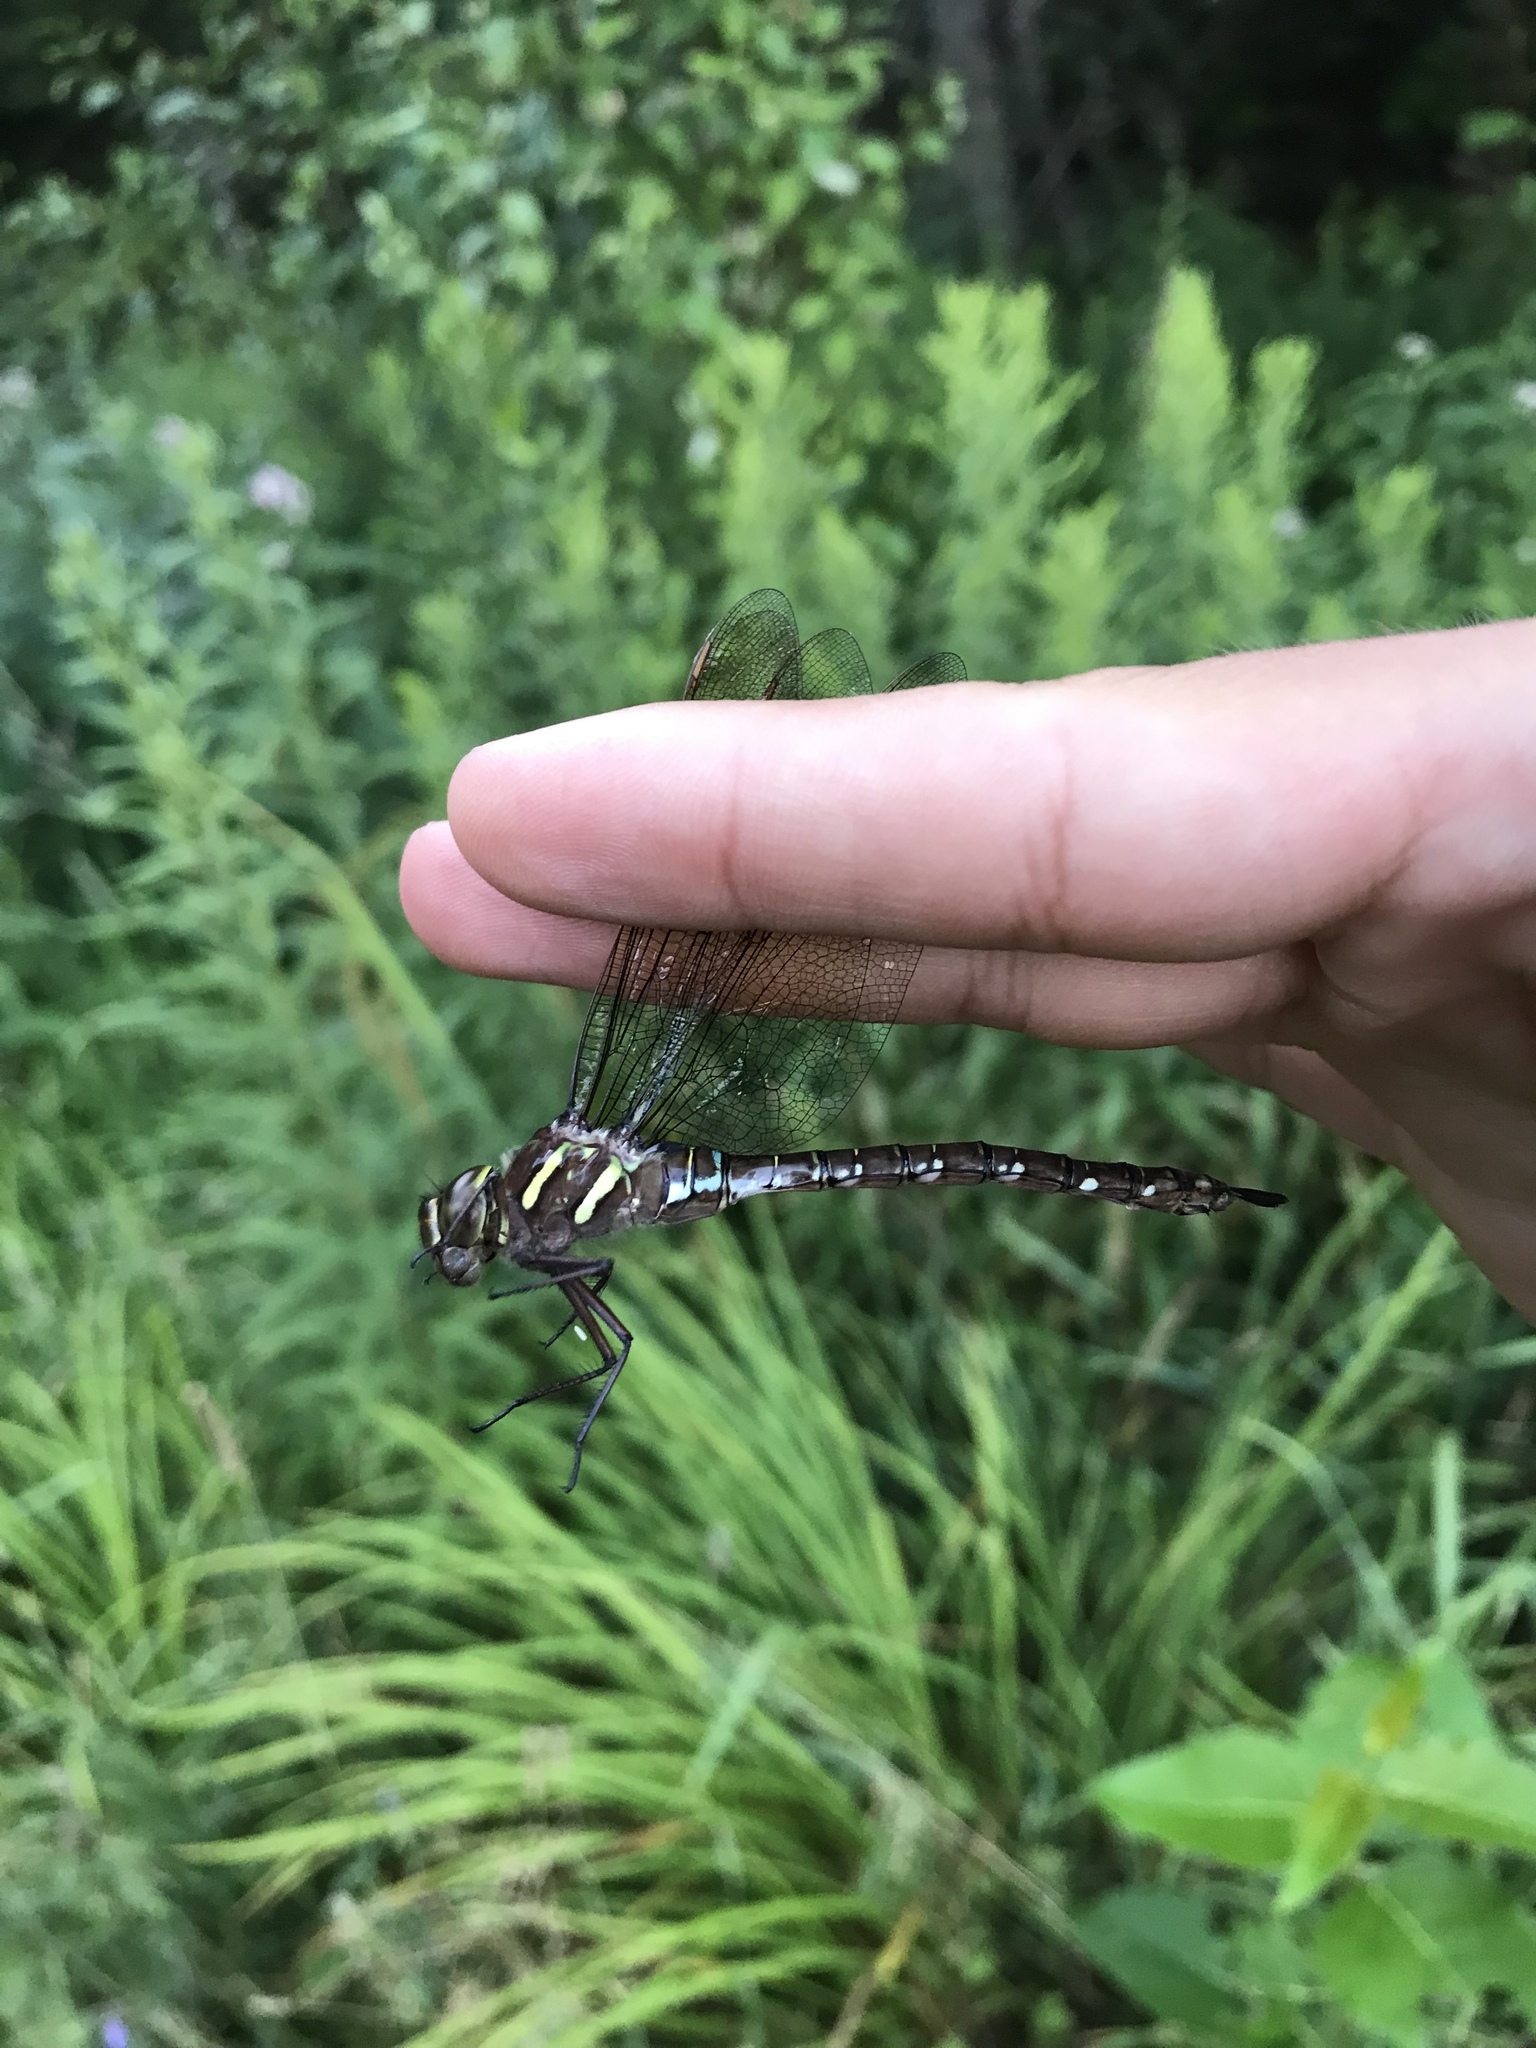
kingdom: Animalia
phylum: Arthropoda
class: Insecta
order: Odonata
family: Aeshnidae
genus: Aeshna
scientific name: Aeshna umbrosa
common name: Shadow darner
